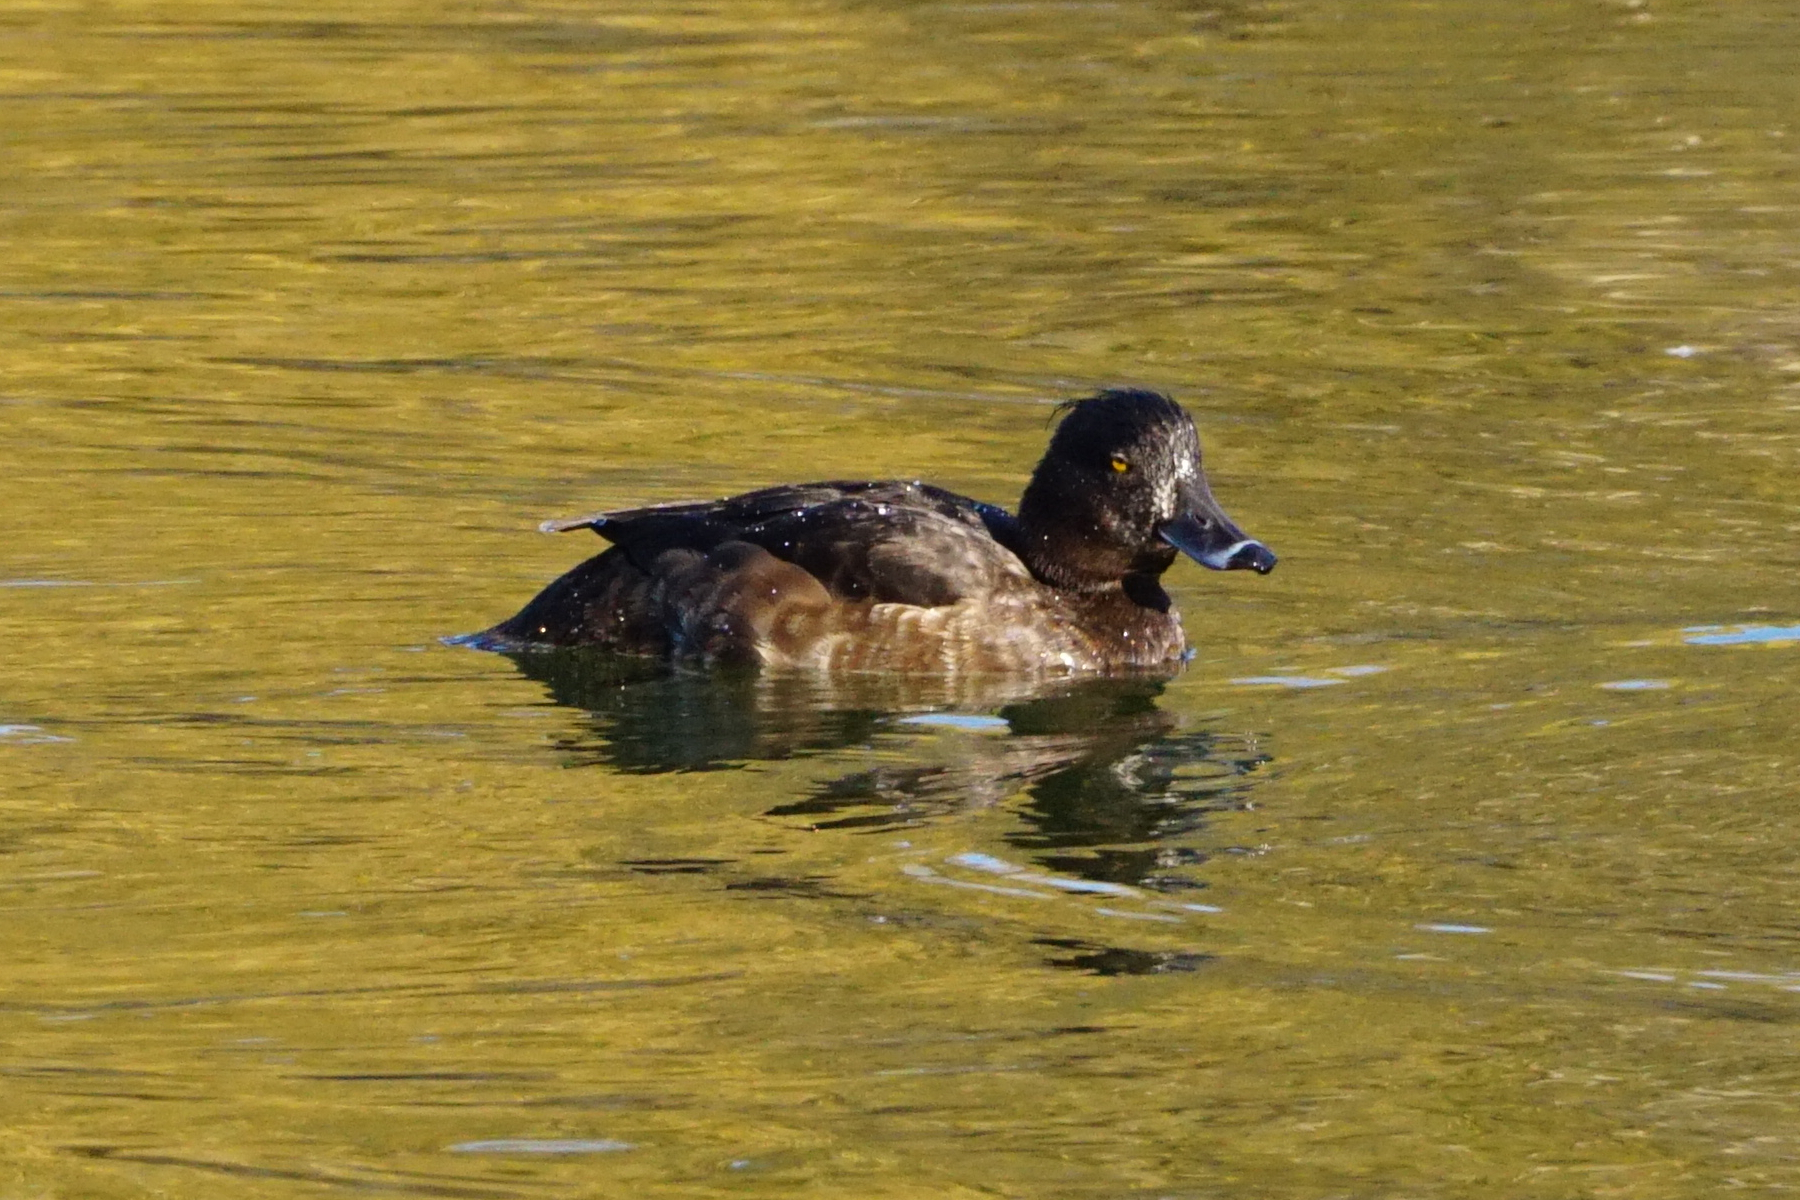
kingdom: Animalia
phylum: Chordata
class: Aves
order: Anseriformes
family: Anatidae
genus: Aythya
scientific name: Aythya fuligula
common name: Tufted duck
